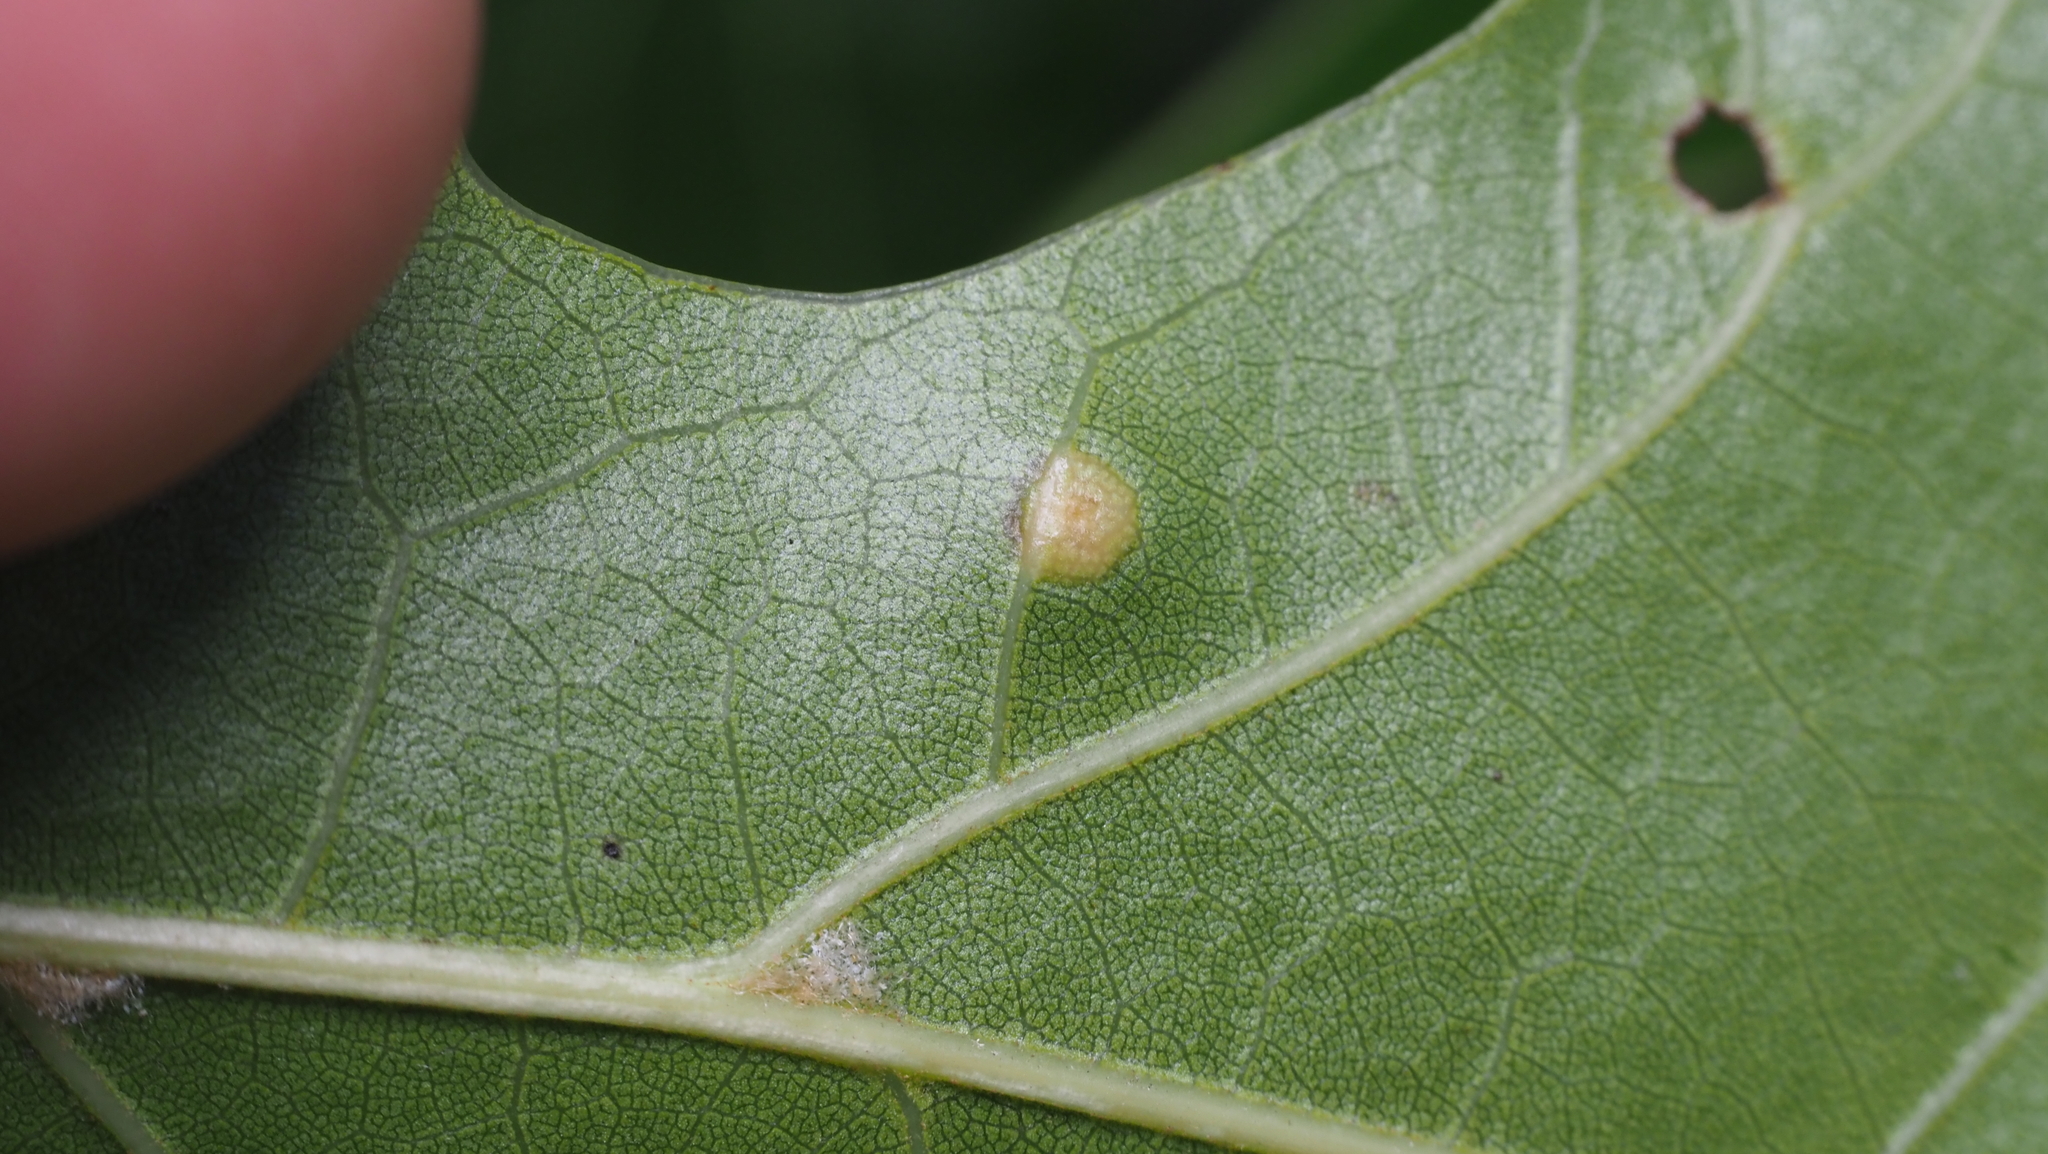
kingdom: Animalia
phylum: Arthropoda
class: Insecta
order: Diptera
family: Cecidomyiidae
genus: Polystepha
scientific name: Polystepha pilulae
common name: Oak leaf gall midge
